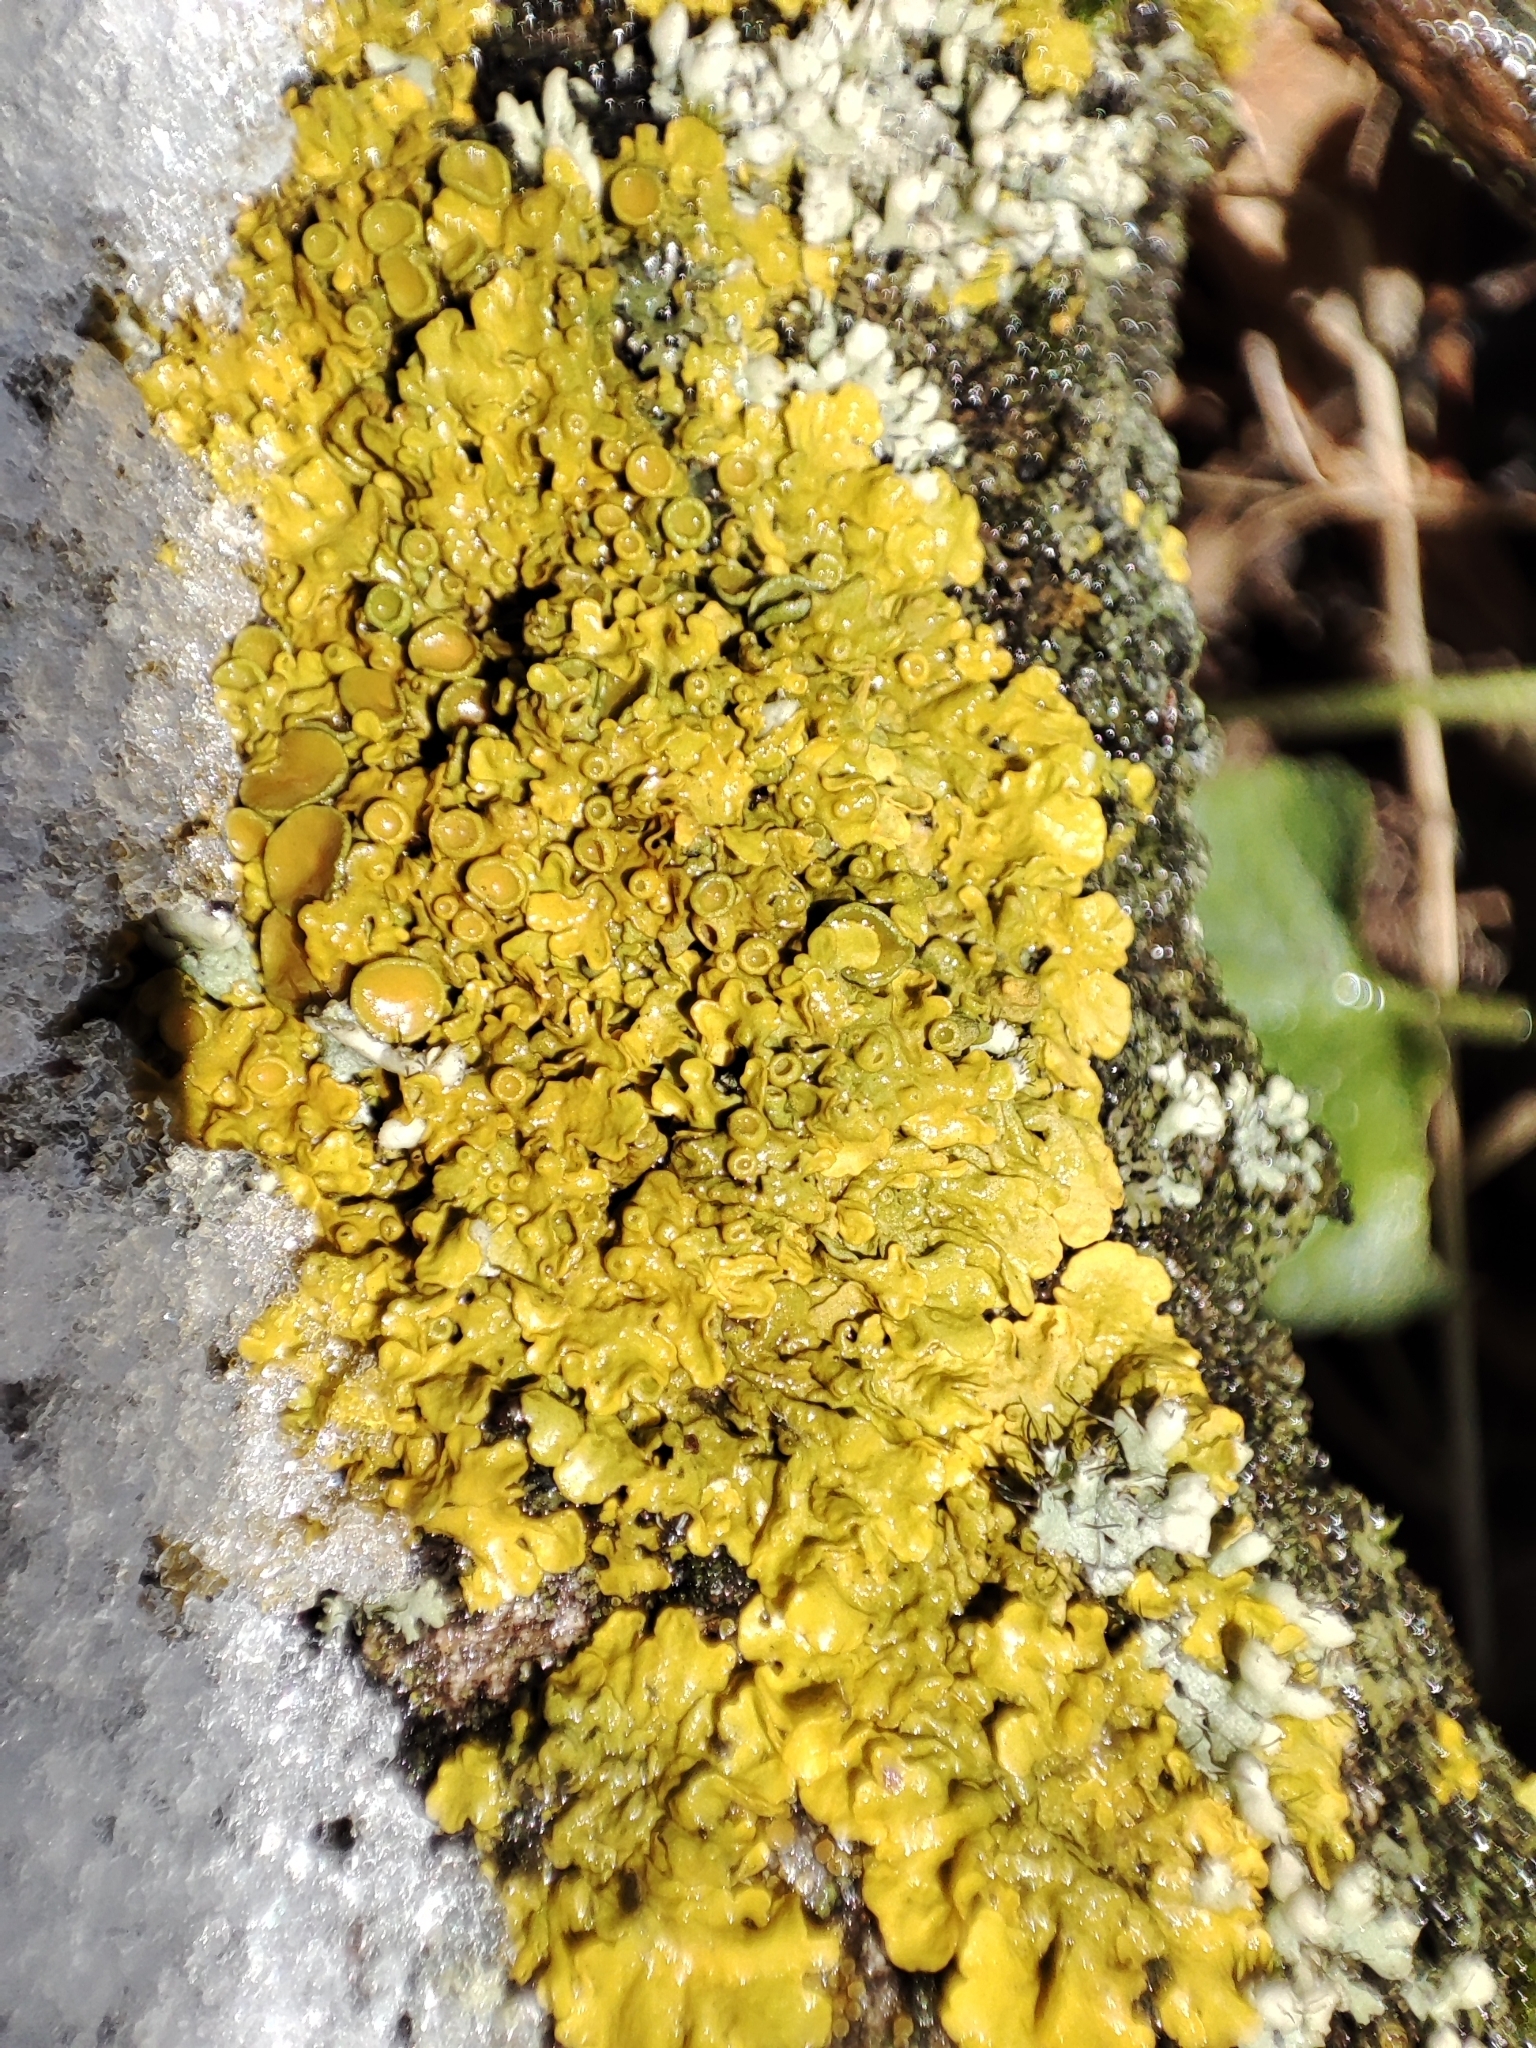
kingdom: Fungi
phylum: Ascomycota
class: Lecanoromycetes
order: Teloschistales
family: Teloschistaceae
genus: Xanthoria
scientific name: Xanthoria parietina
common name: Common orange lichen
